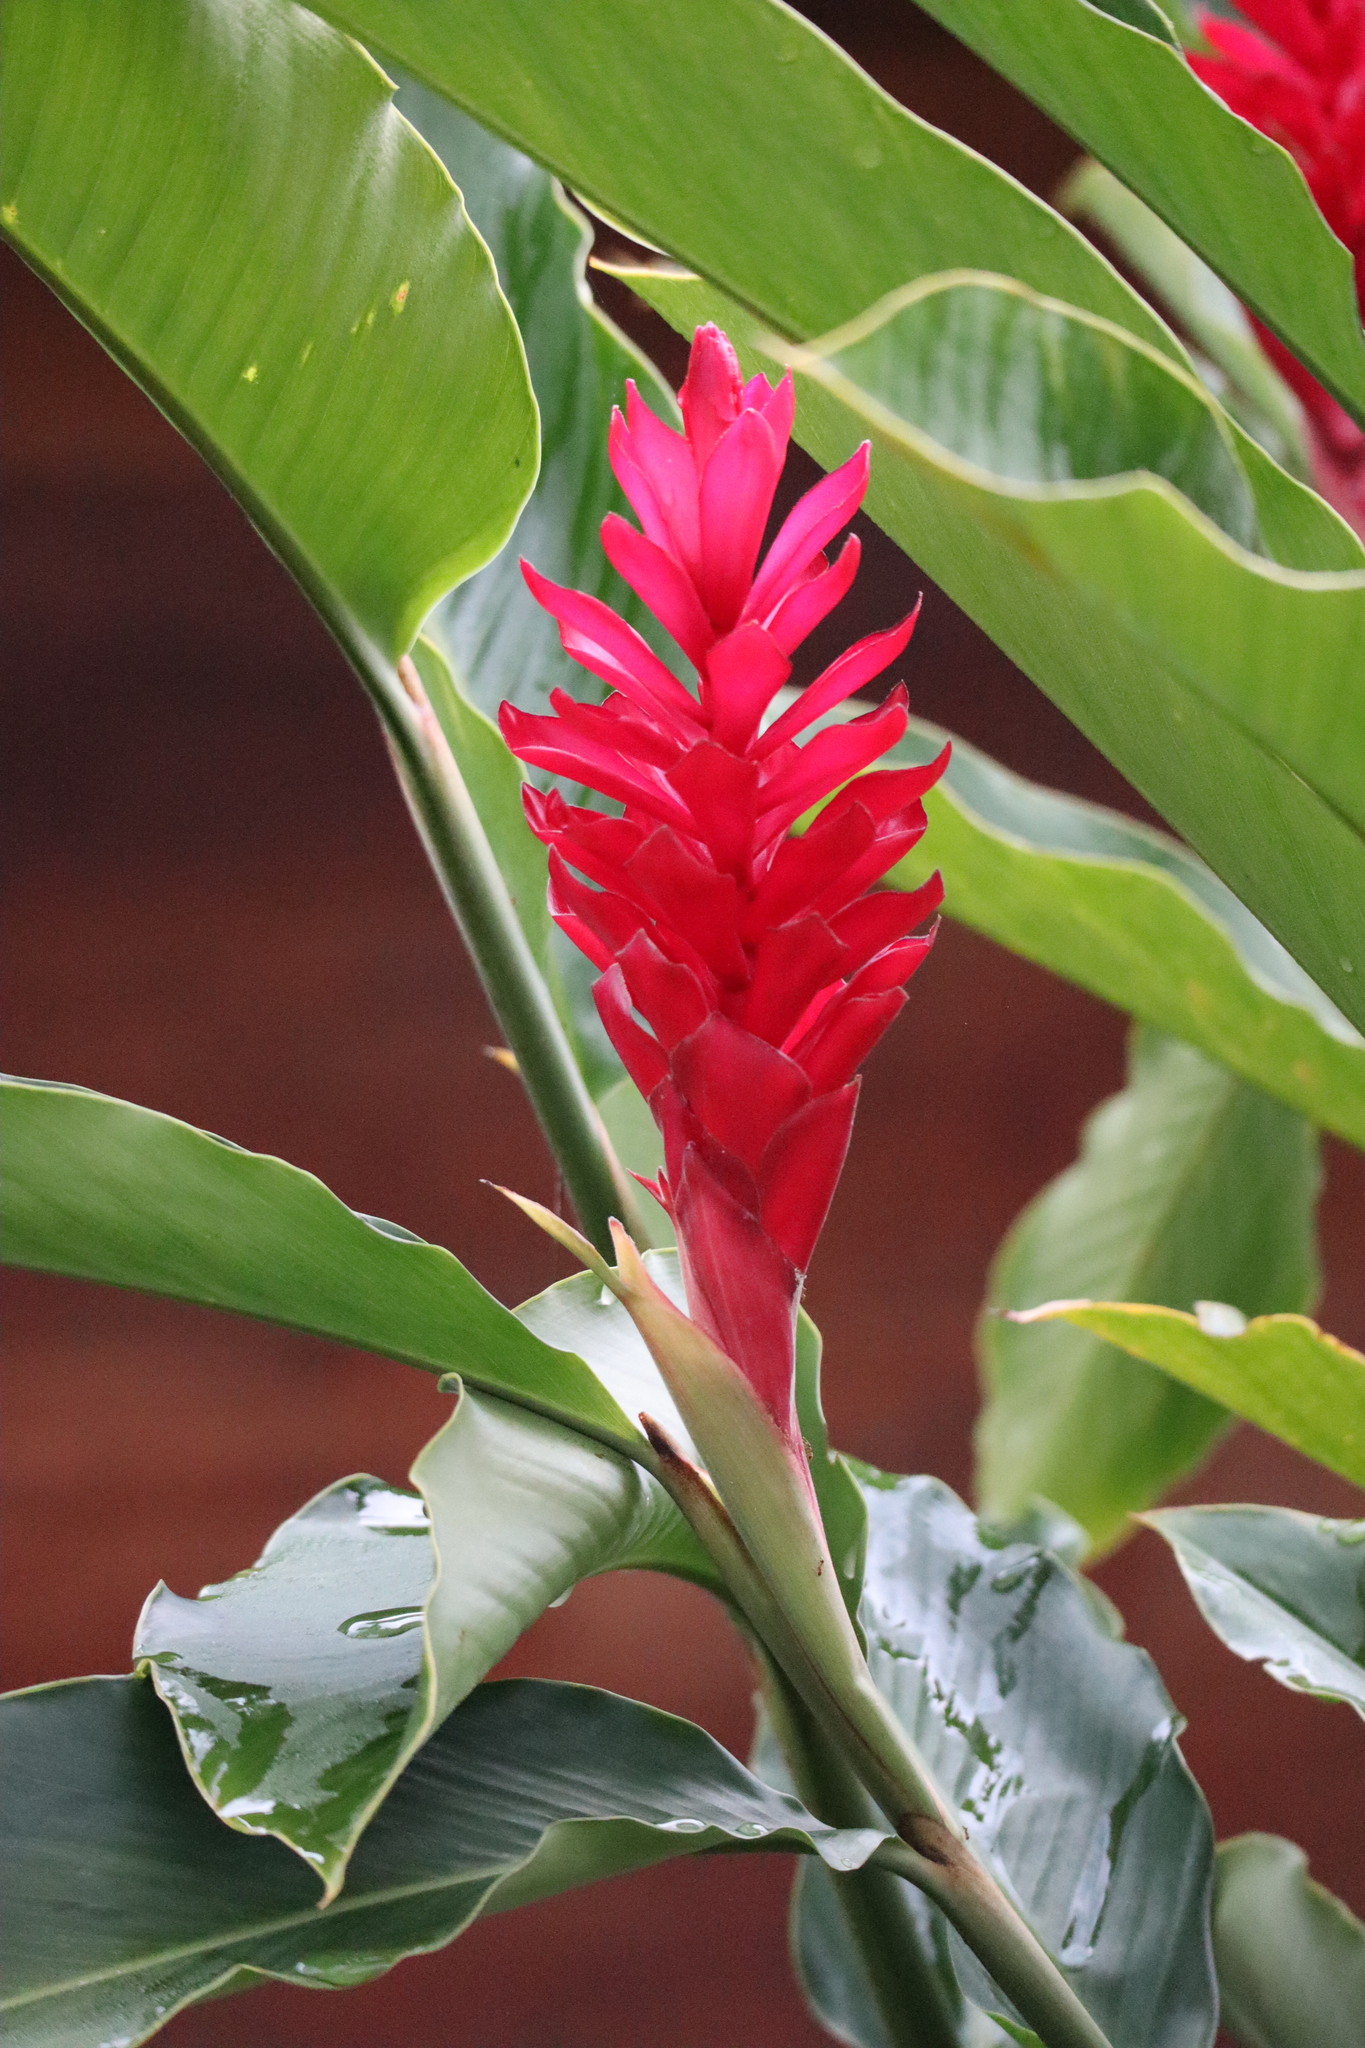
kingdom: Plantae
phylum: Tracheophyta
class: Liliopsida
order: Zingiberales
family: Zingiberaceae
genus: Alpinia
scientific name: Alpinia purpurata
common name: Red ginger
